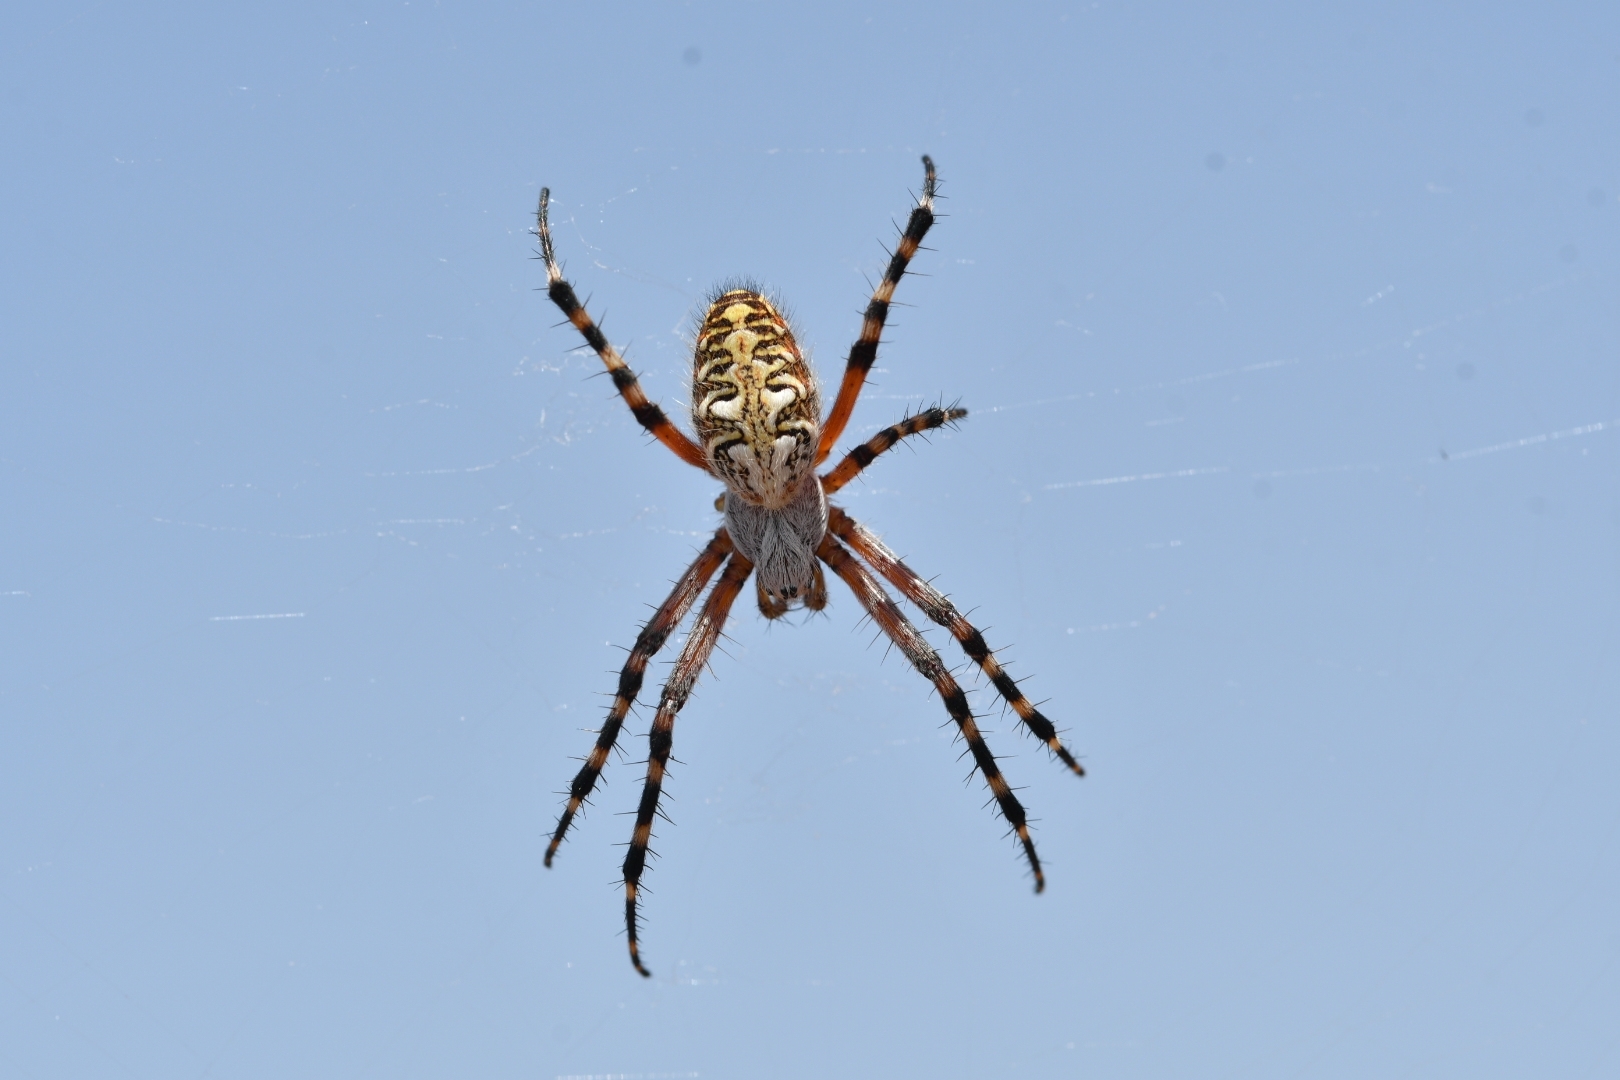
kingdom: Animalia
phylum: Arthropoda
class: Arachnida
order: Araneae
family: Araneidae
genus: Araneus
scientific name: Araneus annulipes
